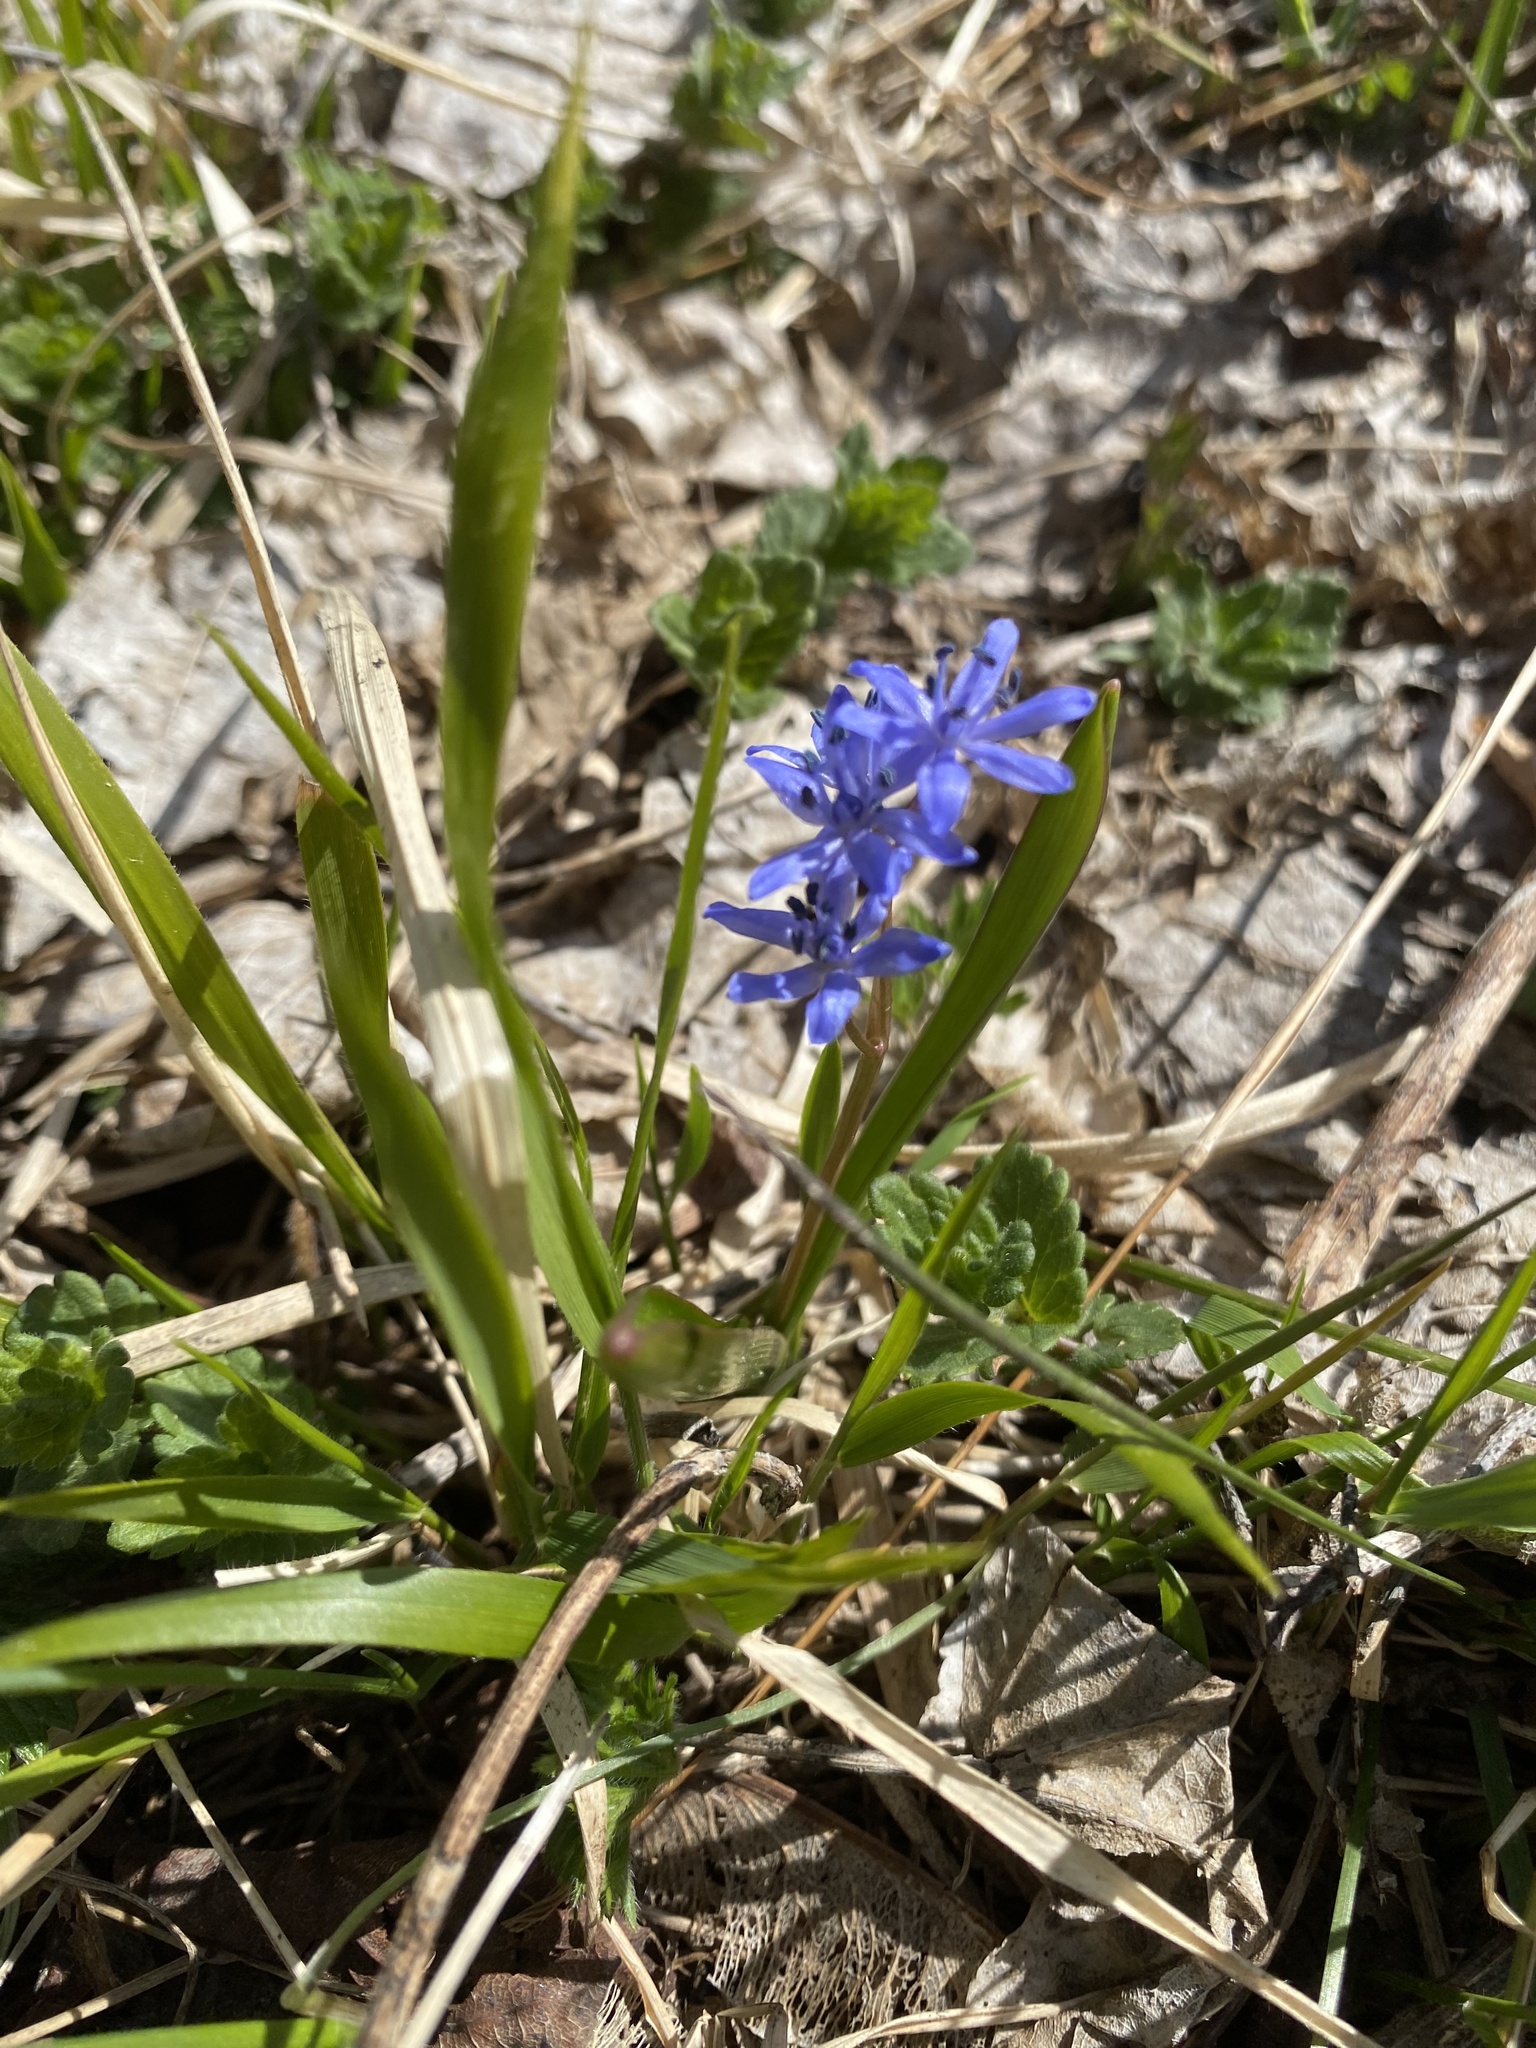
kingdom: Plantae
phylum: Tracheophyta
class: Liliopsida
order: Asparagales
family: Asparagaceae
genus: Scilla
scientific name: Scilla bifolia
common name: Alpine squill
